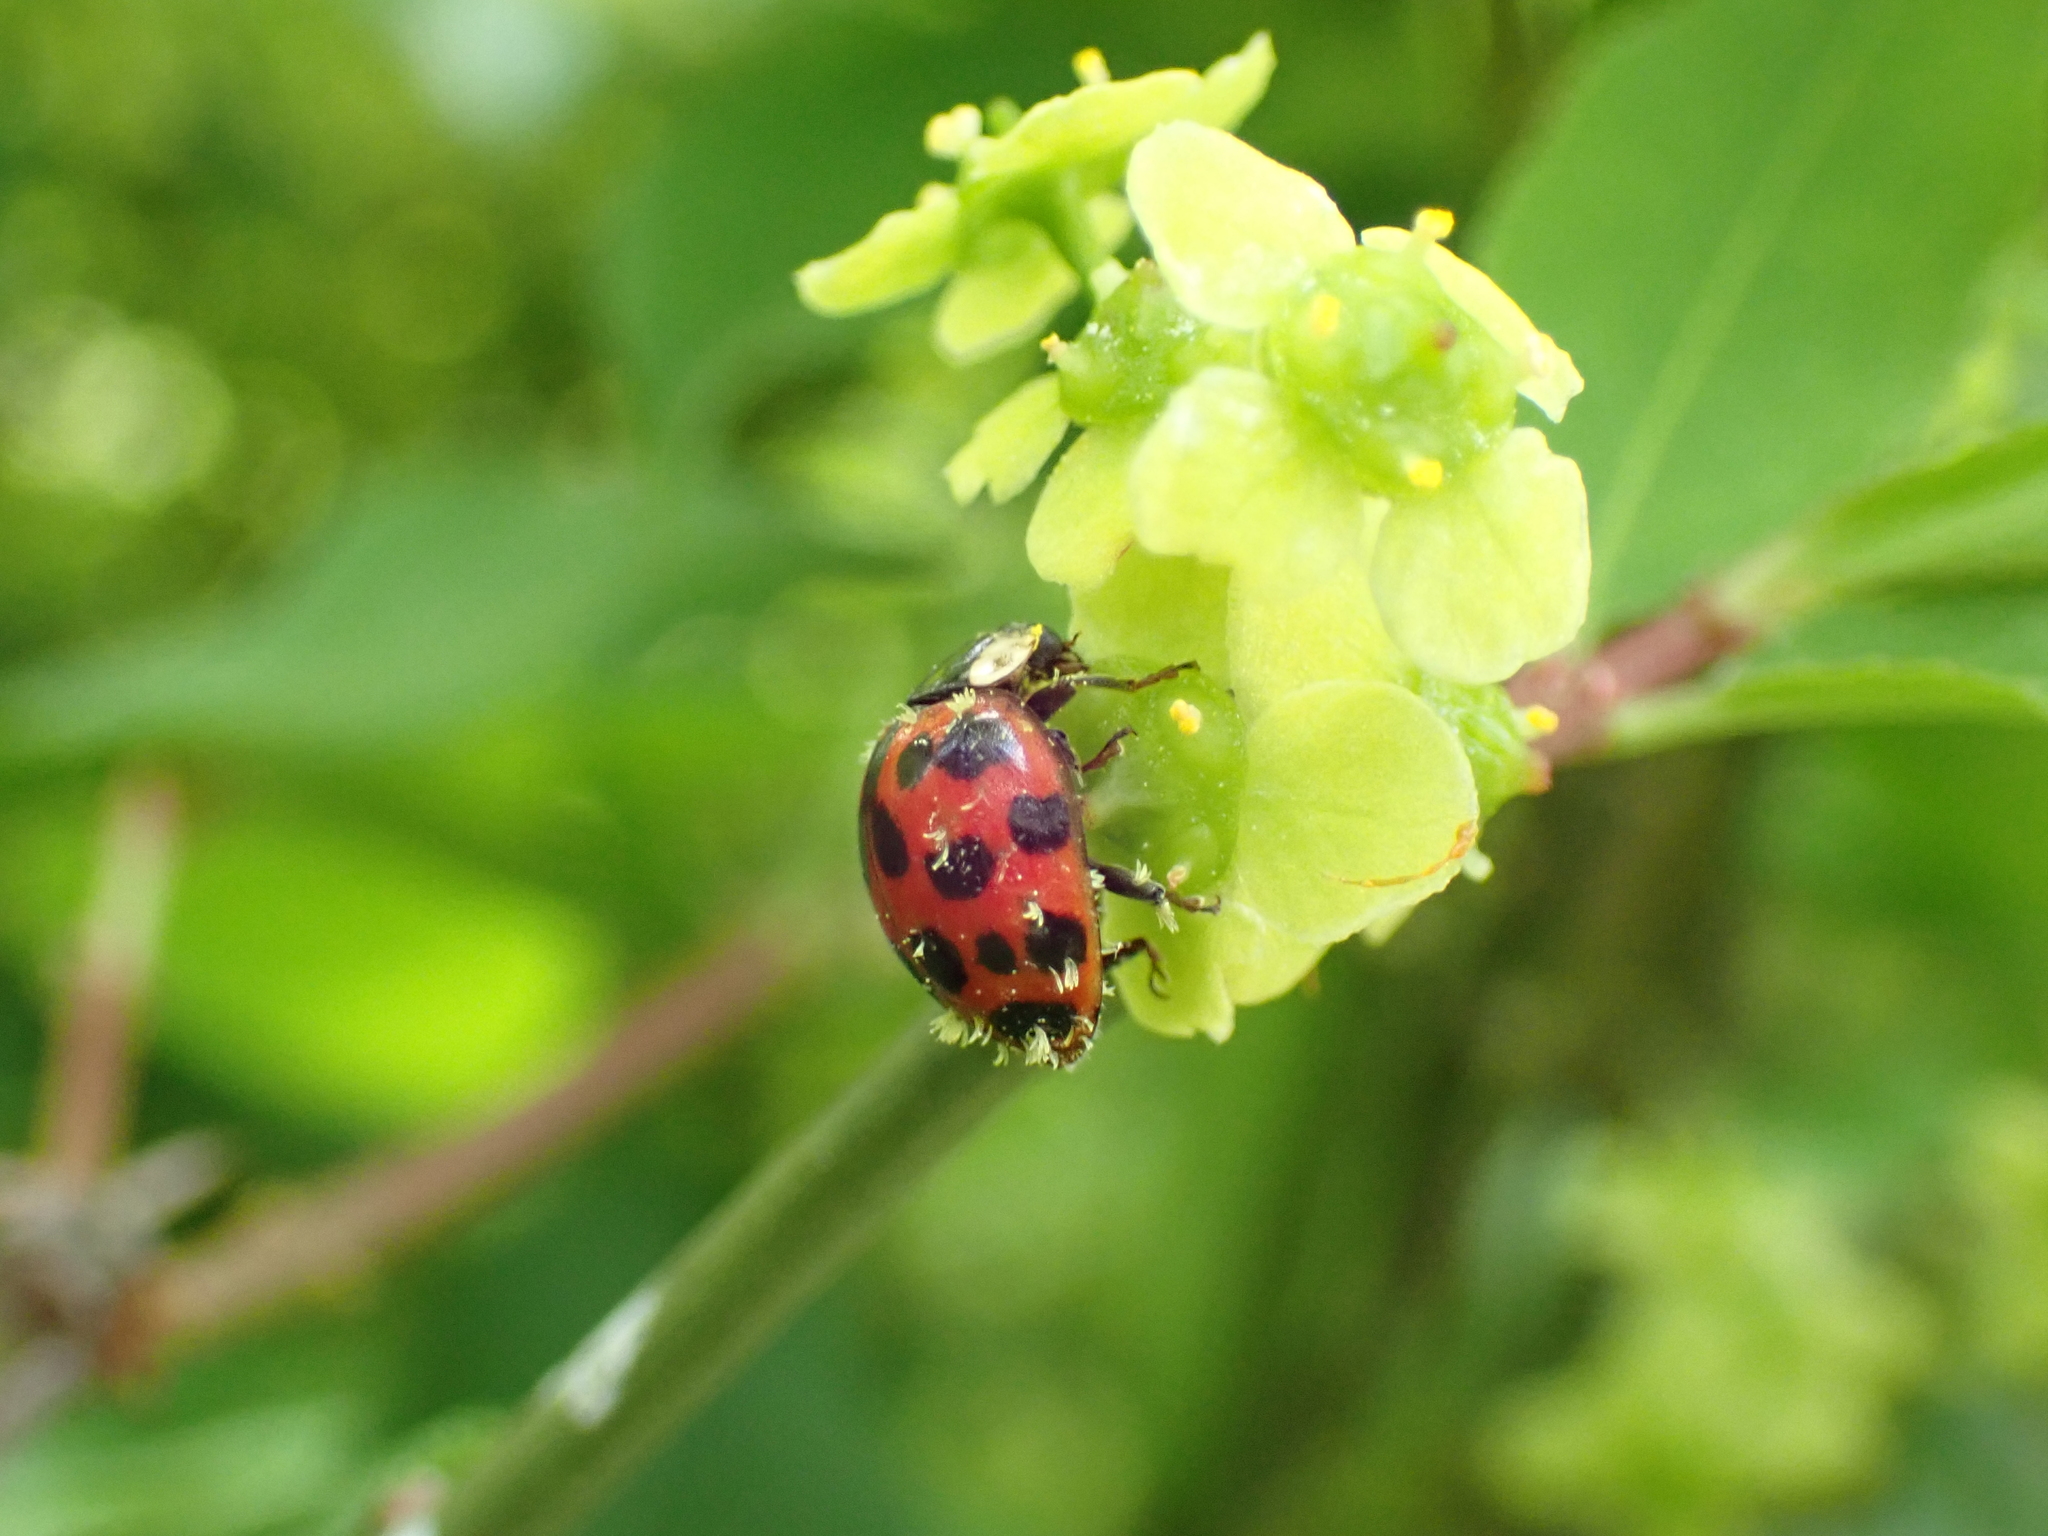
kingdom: Animalia
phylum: Arthropoda
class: Insecta
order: Coleoptera
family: Coccinellidae
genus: Harmonia
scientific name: Harmonia axyridis
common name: Harlequin ladybird
